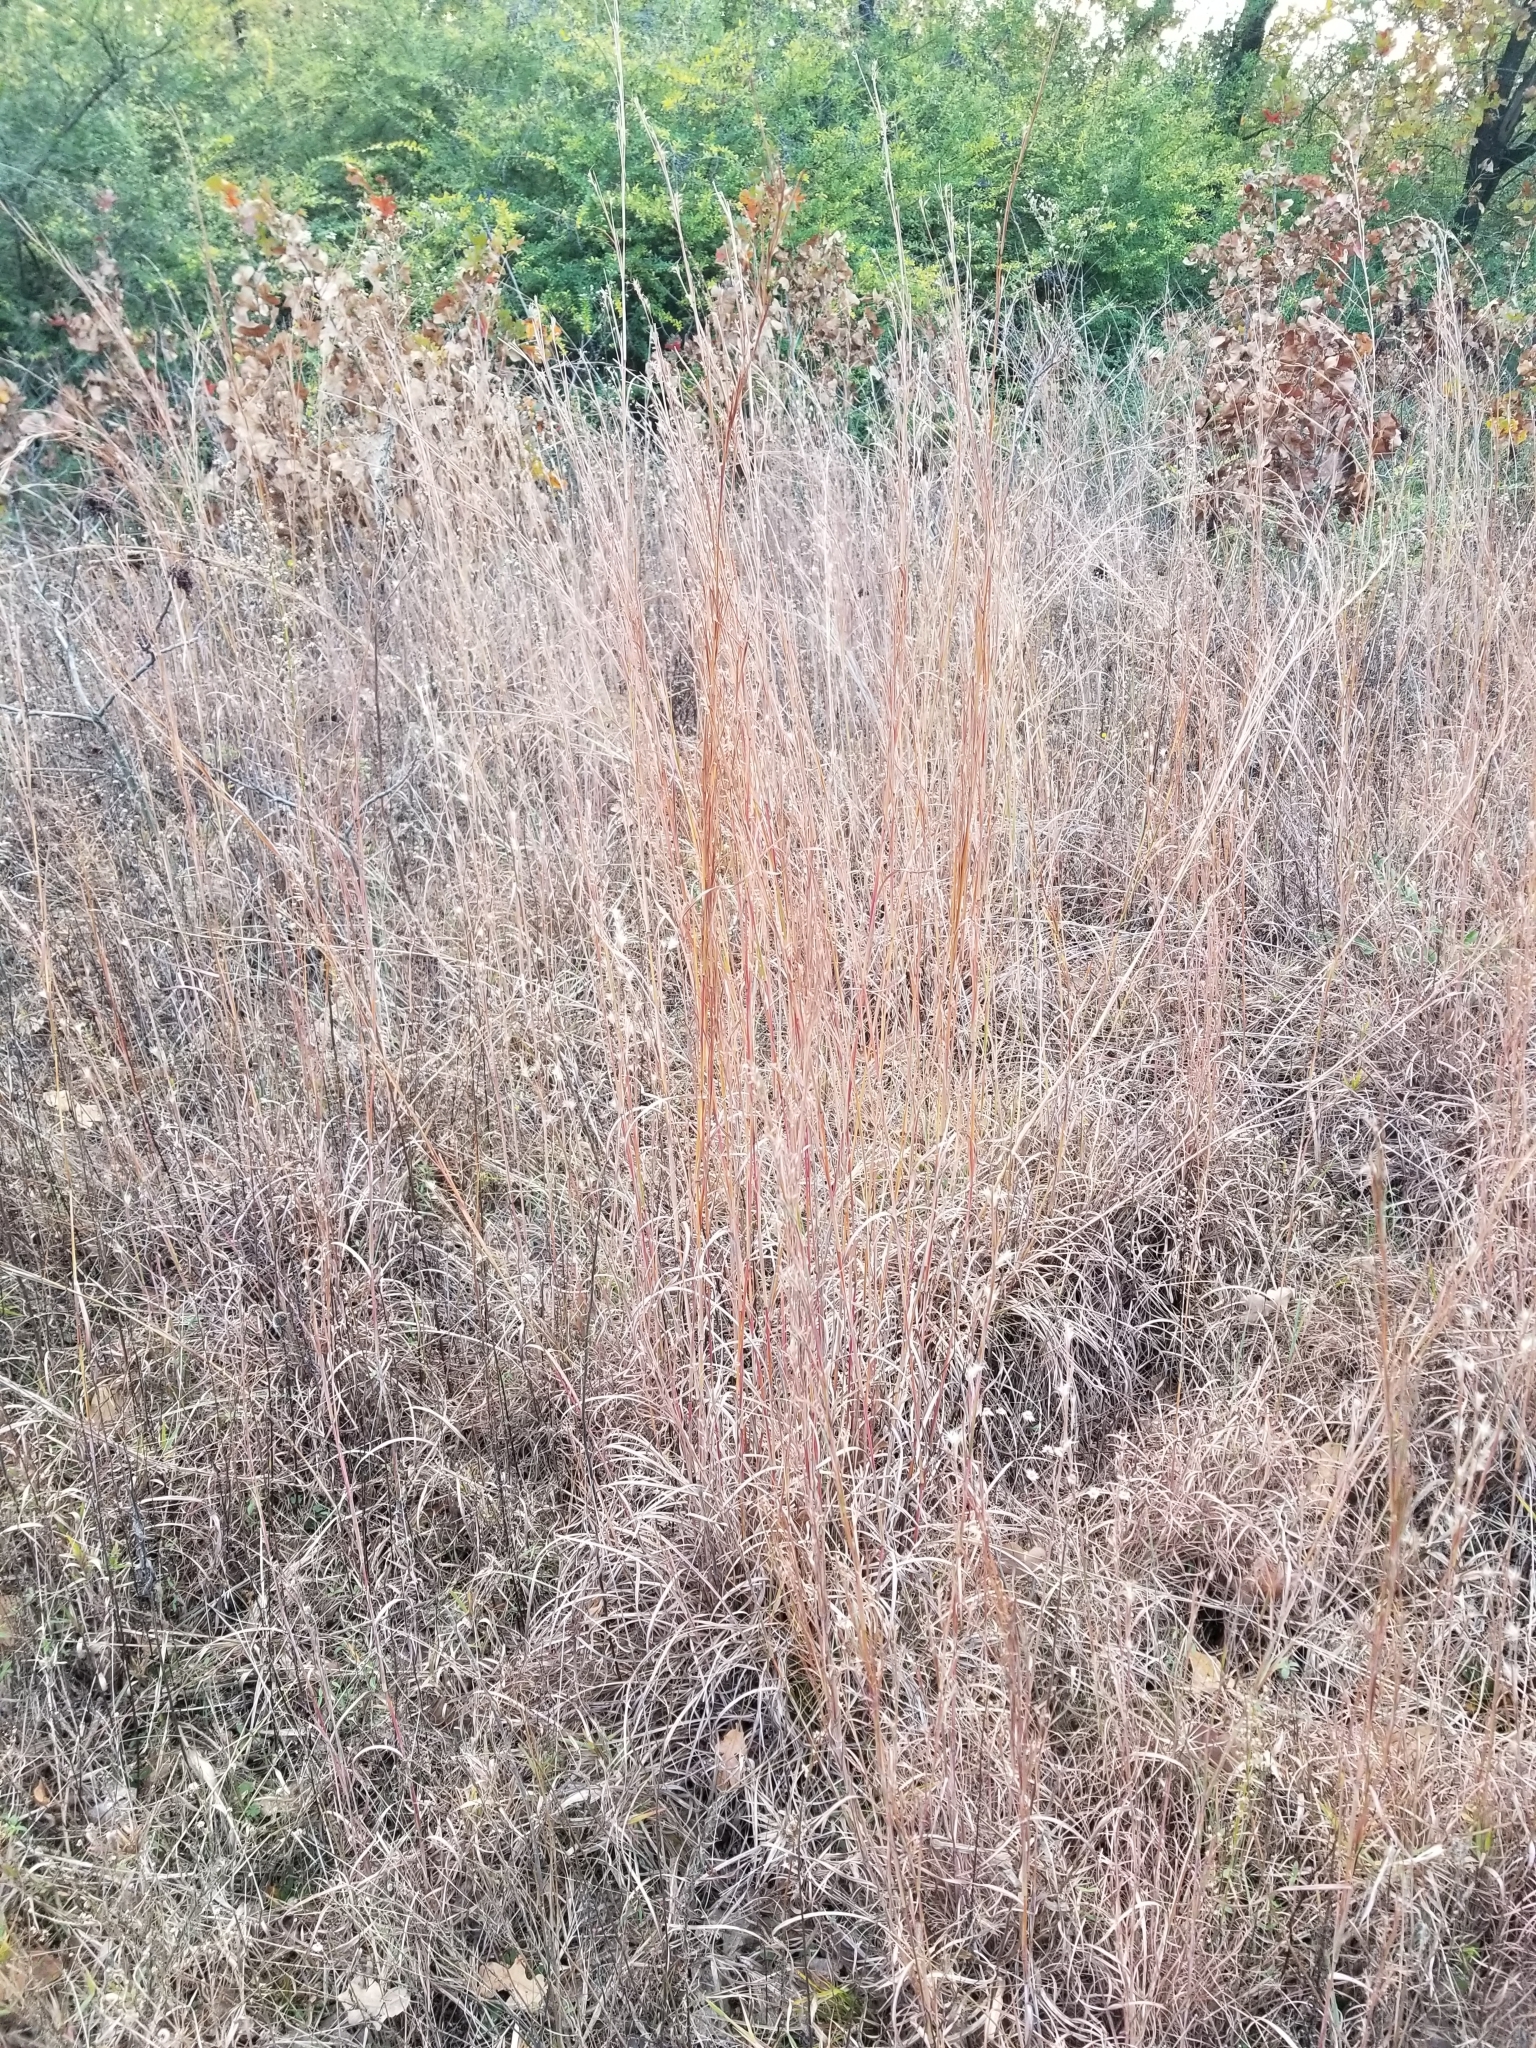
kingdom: Plantae
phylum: Tracheophyta
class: Liliopsida
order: Poales
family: Poaceae
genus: Schizachyrium
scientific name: Schizachyrium scoparium
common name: Little bluestem
